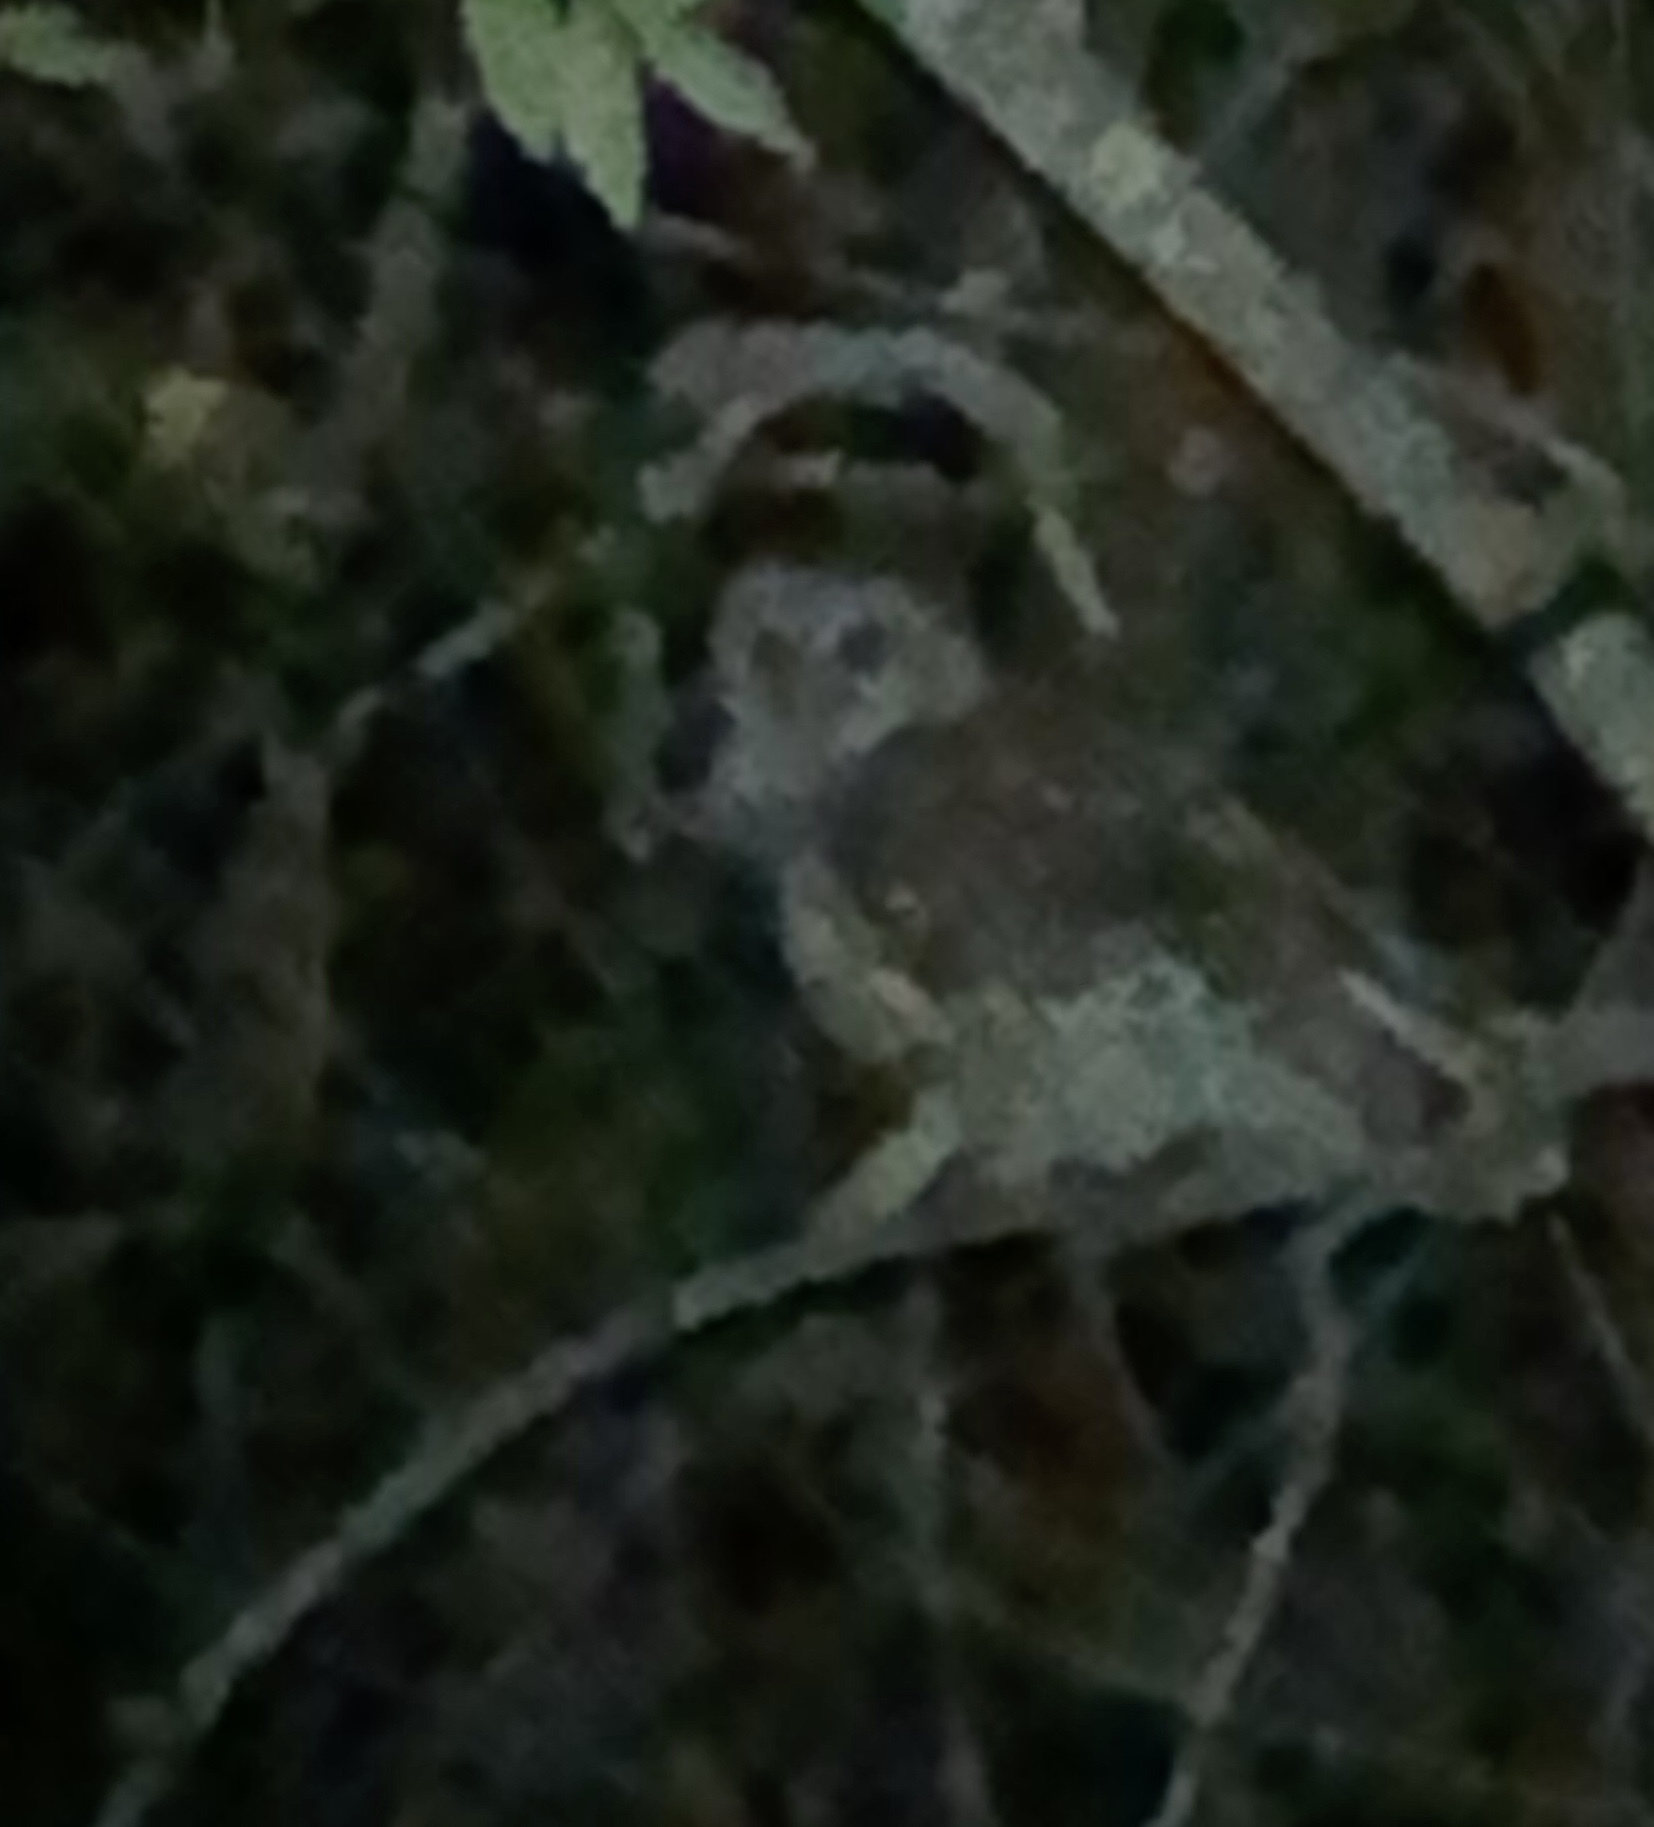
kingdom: Animalia
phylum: Chordata
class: Aves
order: Strigiformes
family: Strigidae
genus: Strix
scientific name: Strix varia
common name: Barred owl
